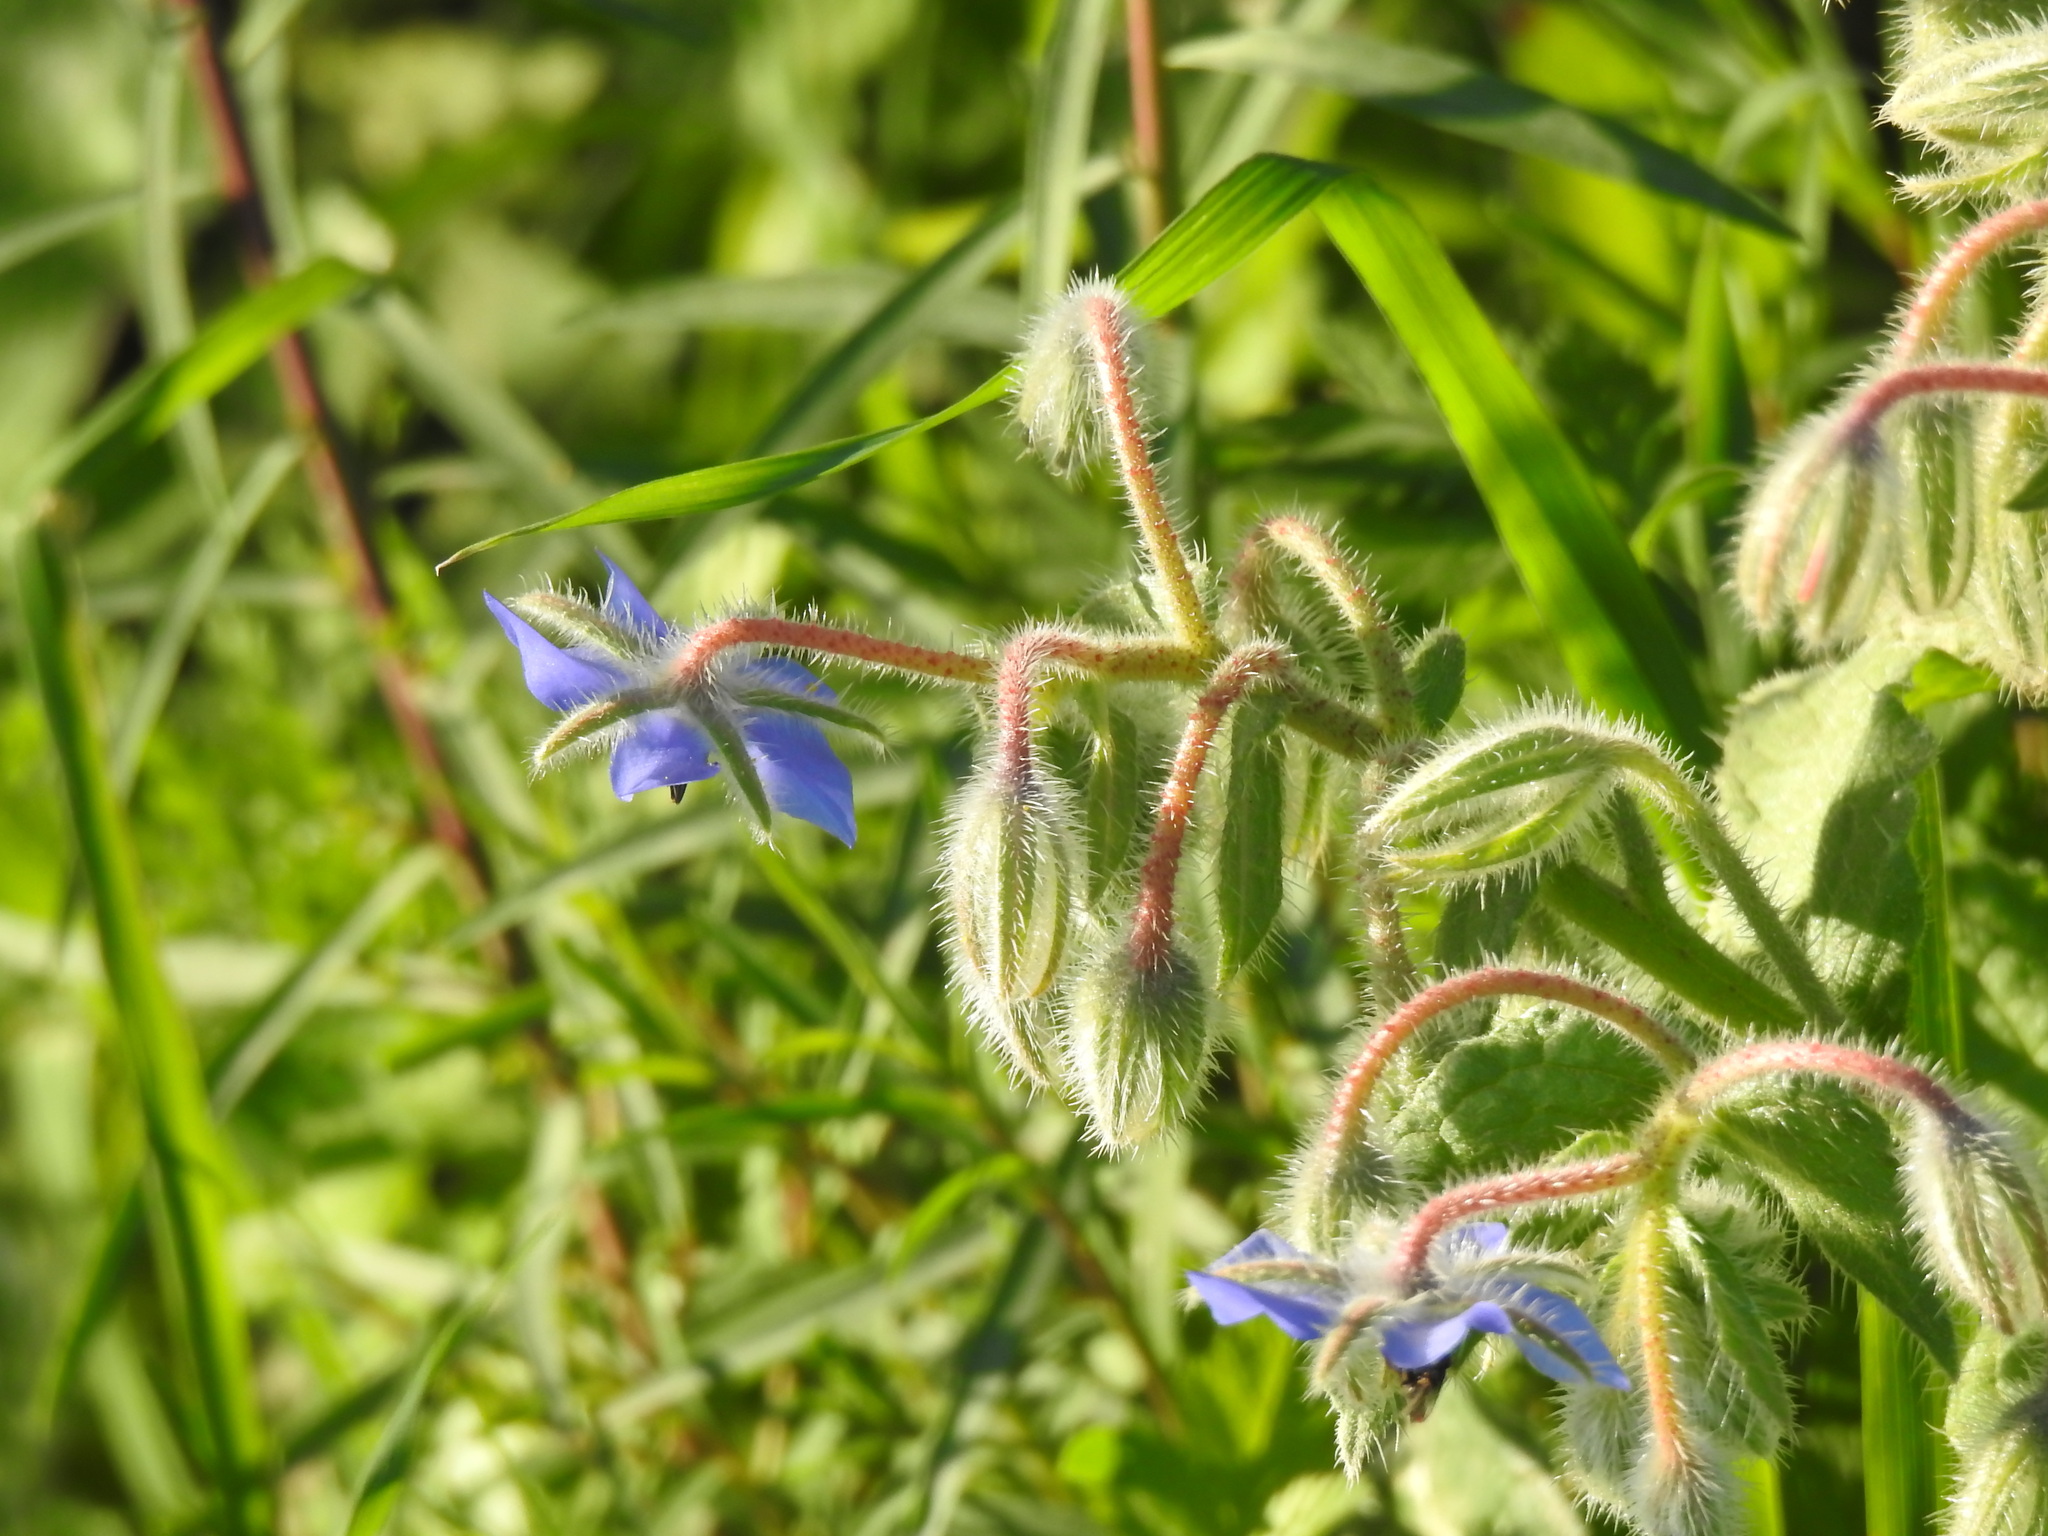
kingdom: Plantae
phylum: Tracheophyta
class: Magnoliopsida
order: Boraginales
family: Boraginaceae
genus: Borago
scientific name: Borago officinalis
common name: Borage
